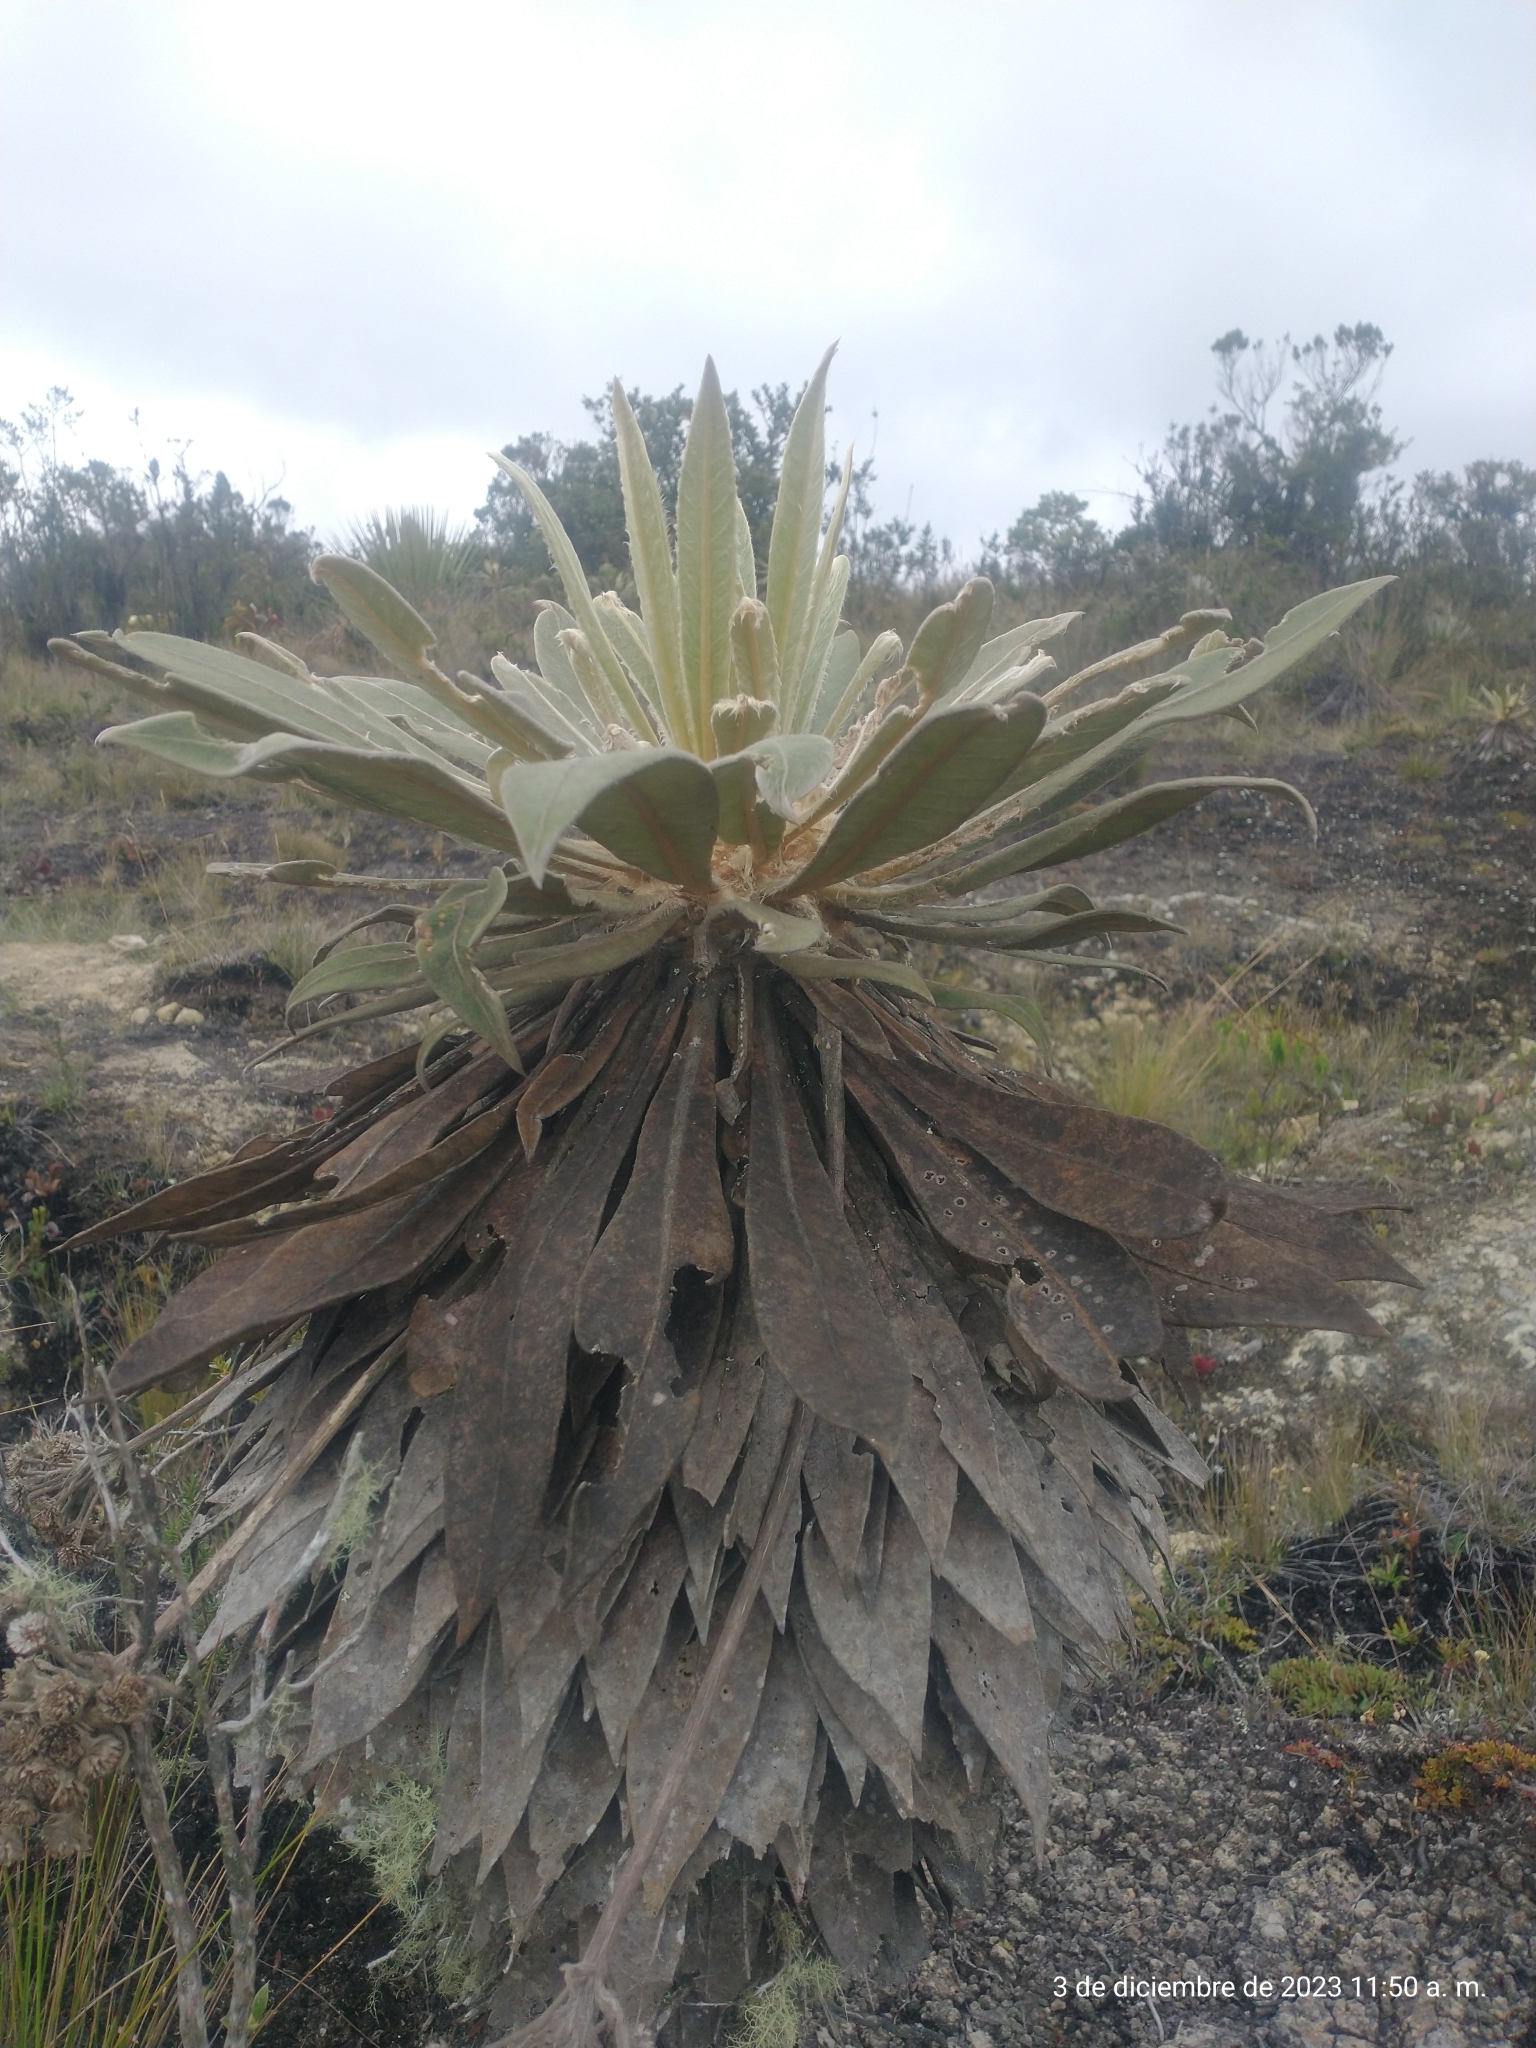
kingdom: Plantae
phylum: Tracheophyta
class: Magnoliopsida
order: Asterales
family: Asteraceae
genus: Espeletia
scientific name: Espeletia corymbosa
